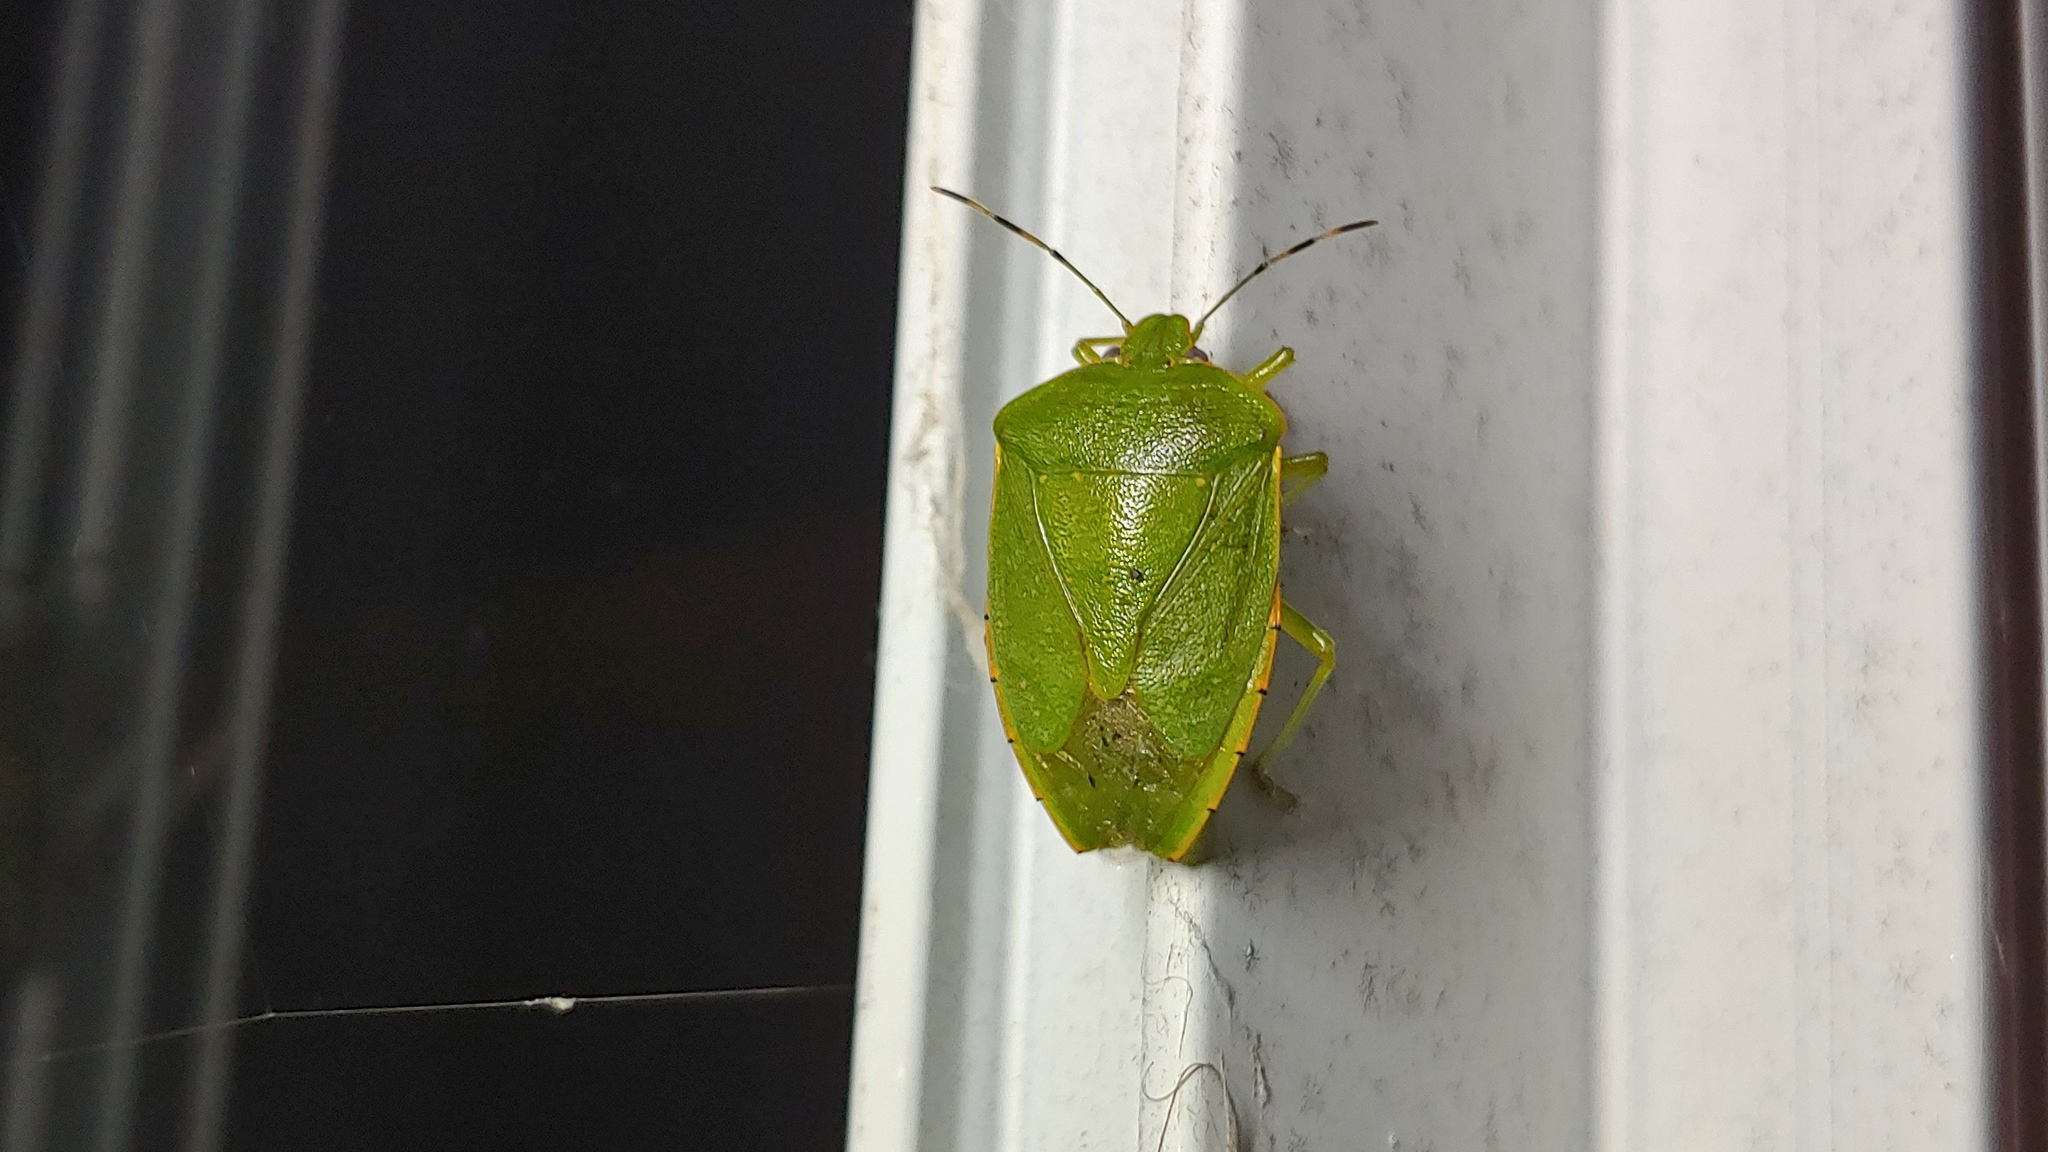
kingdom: Animalia
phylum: Arthropoda
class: Insecta
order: Hemiptera
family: Pentatomidae
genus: Chinavia
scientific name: Chinavia hilaris
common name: Green stink bug
